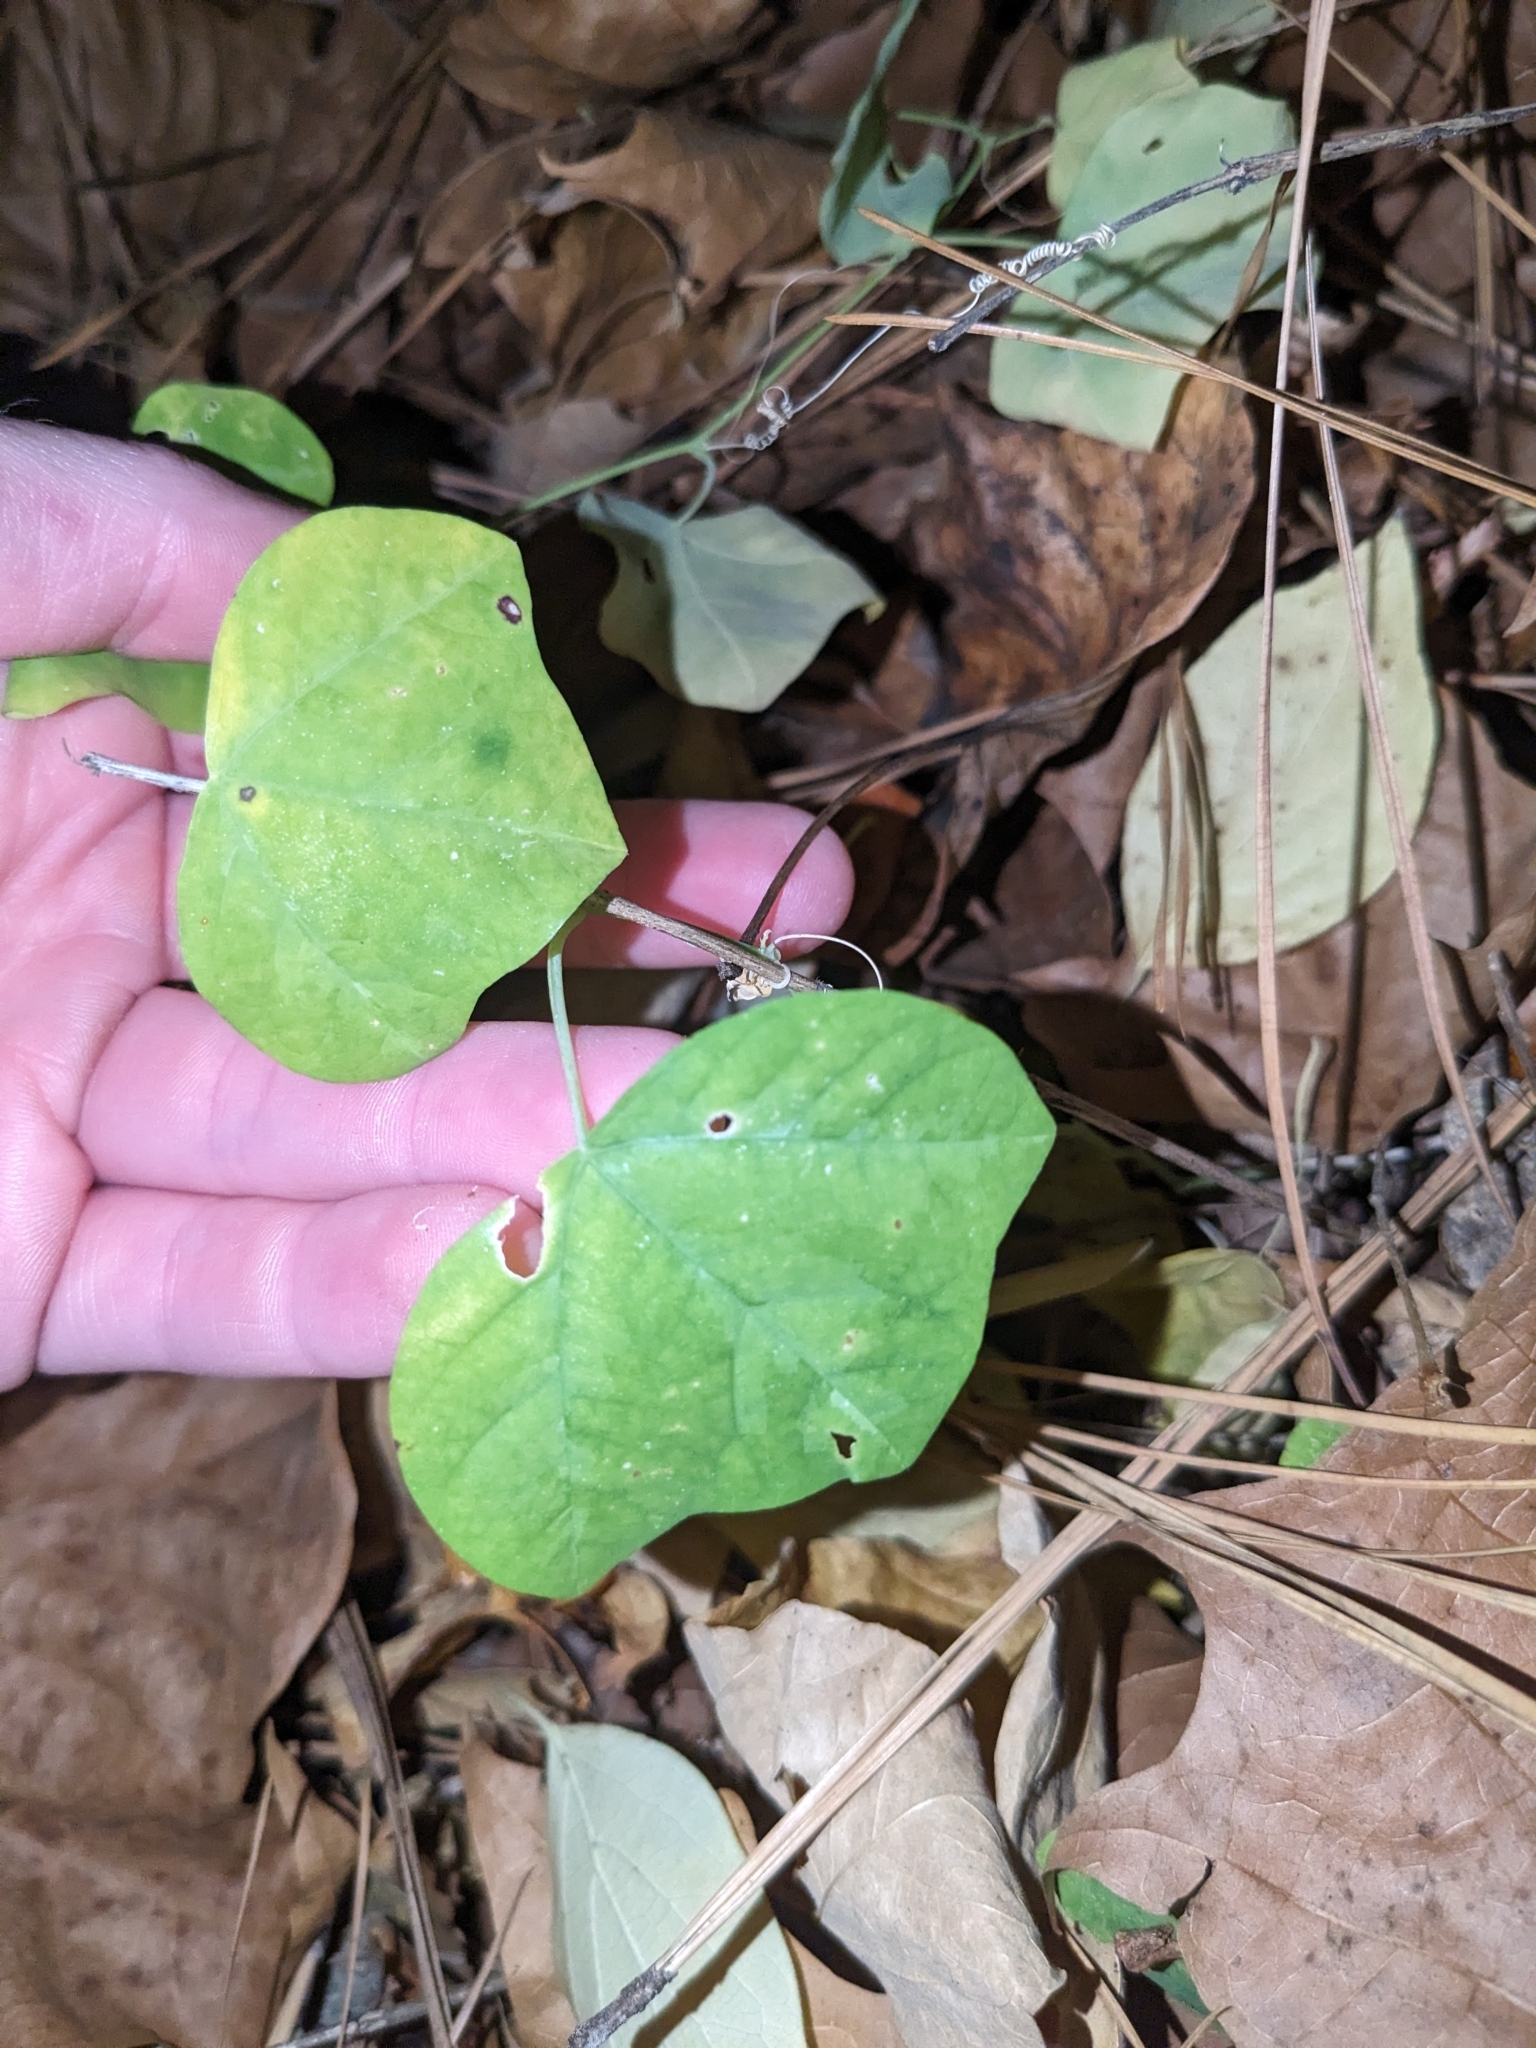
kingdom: Plantae
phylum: Tracheophyta
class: Magnoliopsida
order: Malpighiales
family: Passifloraceae
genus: Passiflora
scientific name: Passiflora lutea
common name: Yellow passionflower
